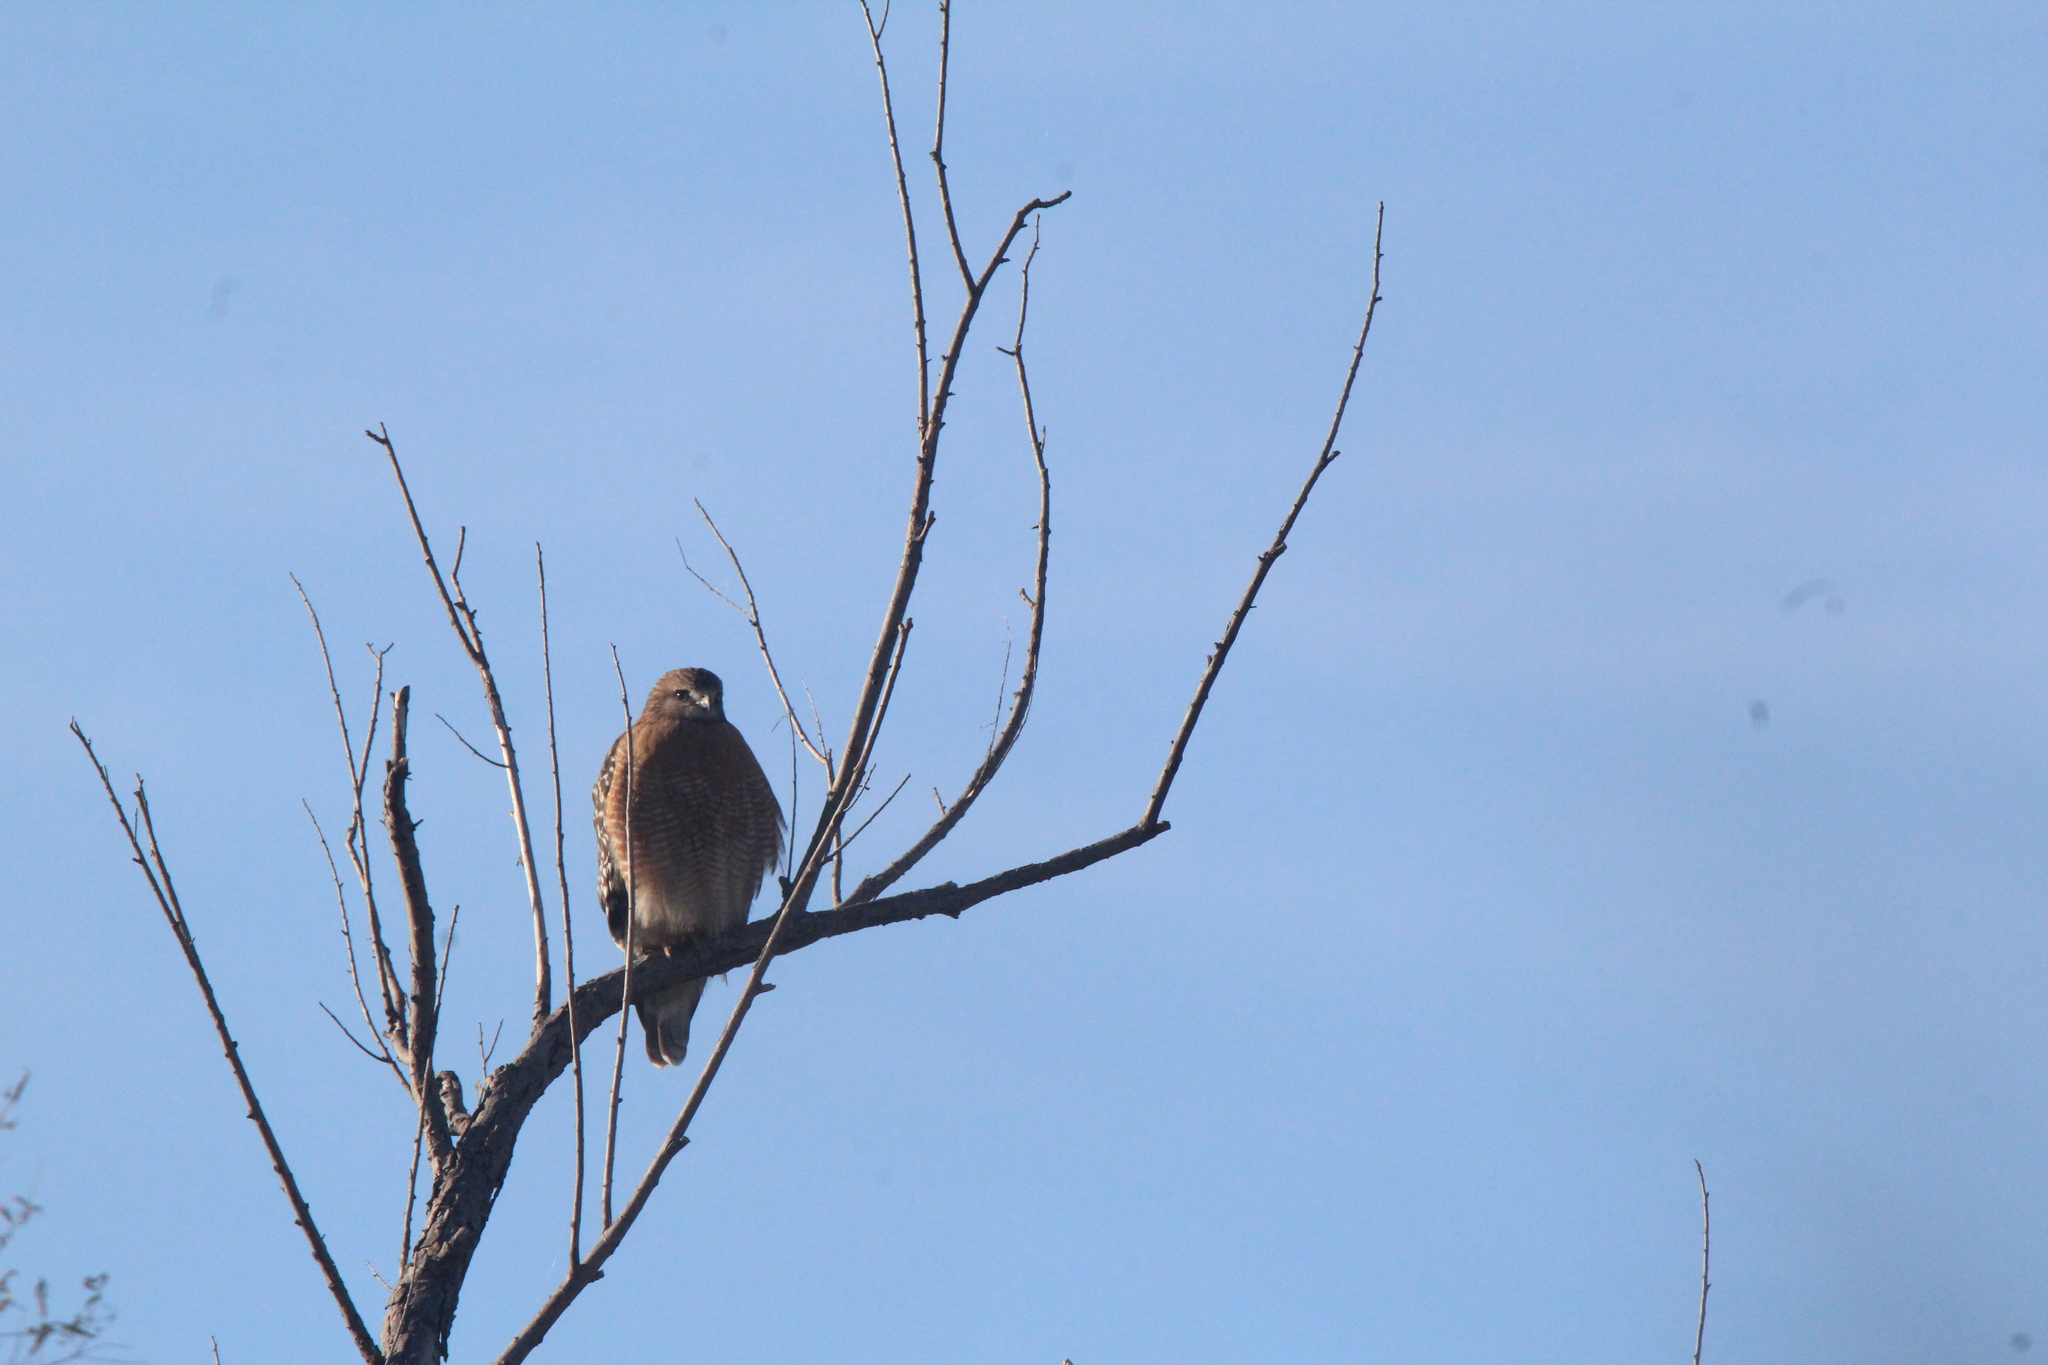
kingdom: Animalia
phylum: Chordata
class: Aves
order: Accipitriformes
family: Accipitridae
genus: Buteo
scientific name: Buteo lineatus
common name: Red-shouldered hawk
